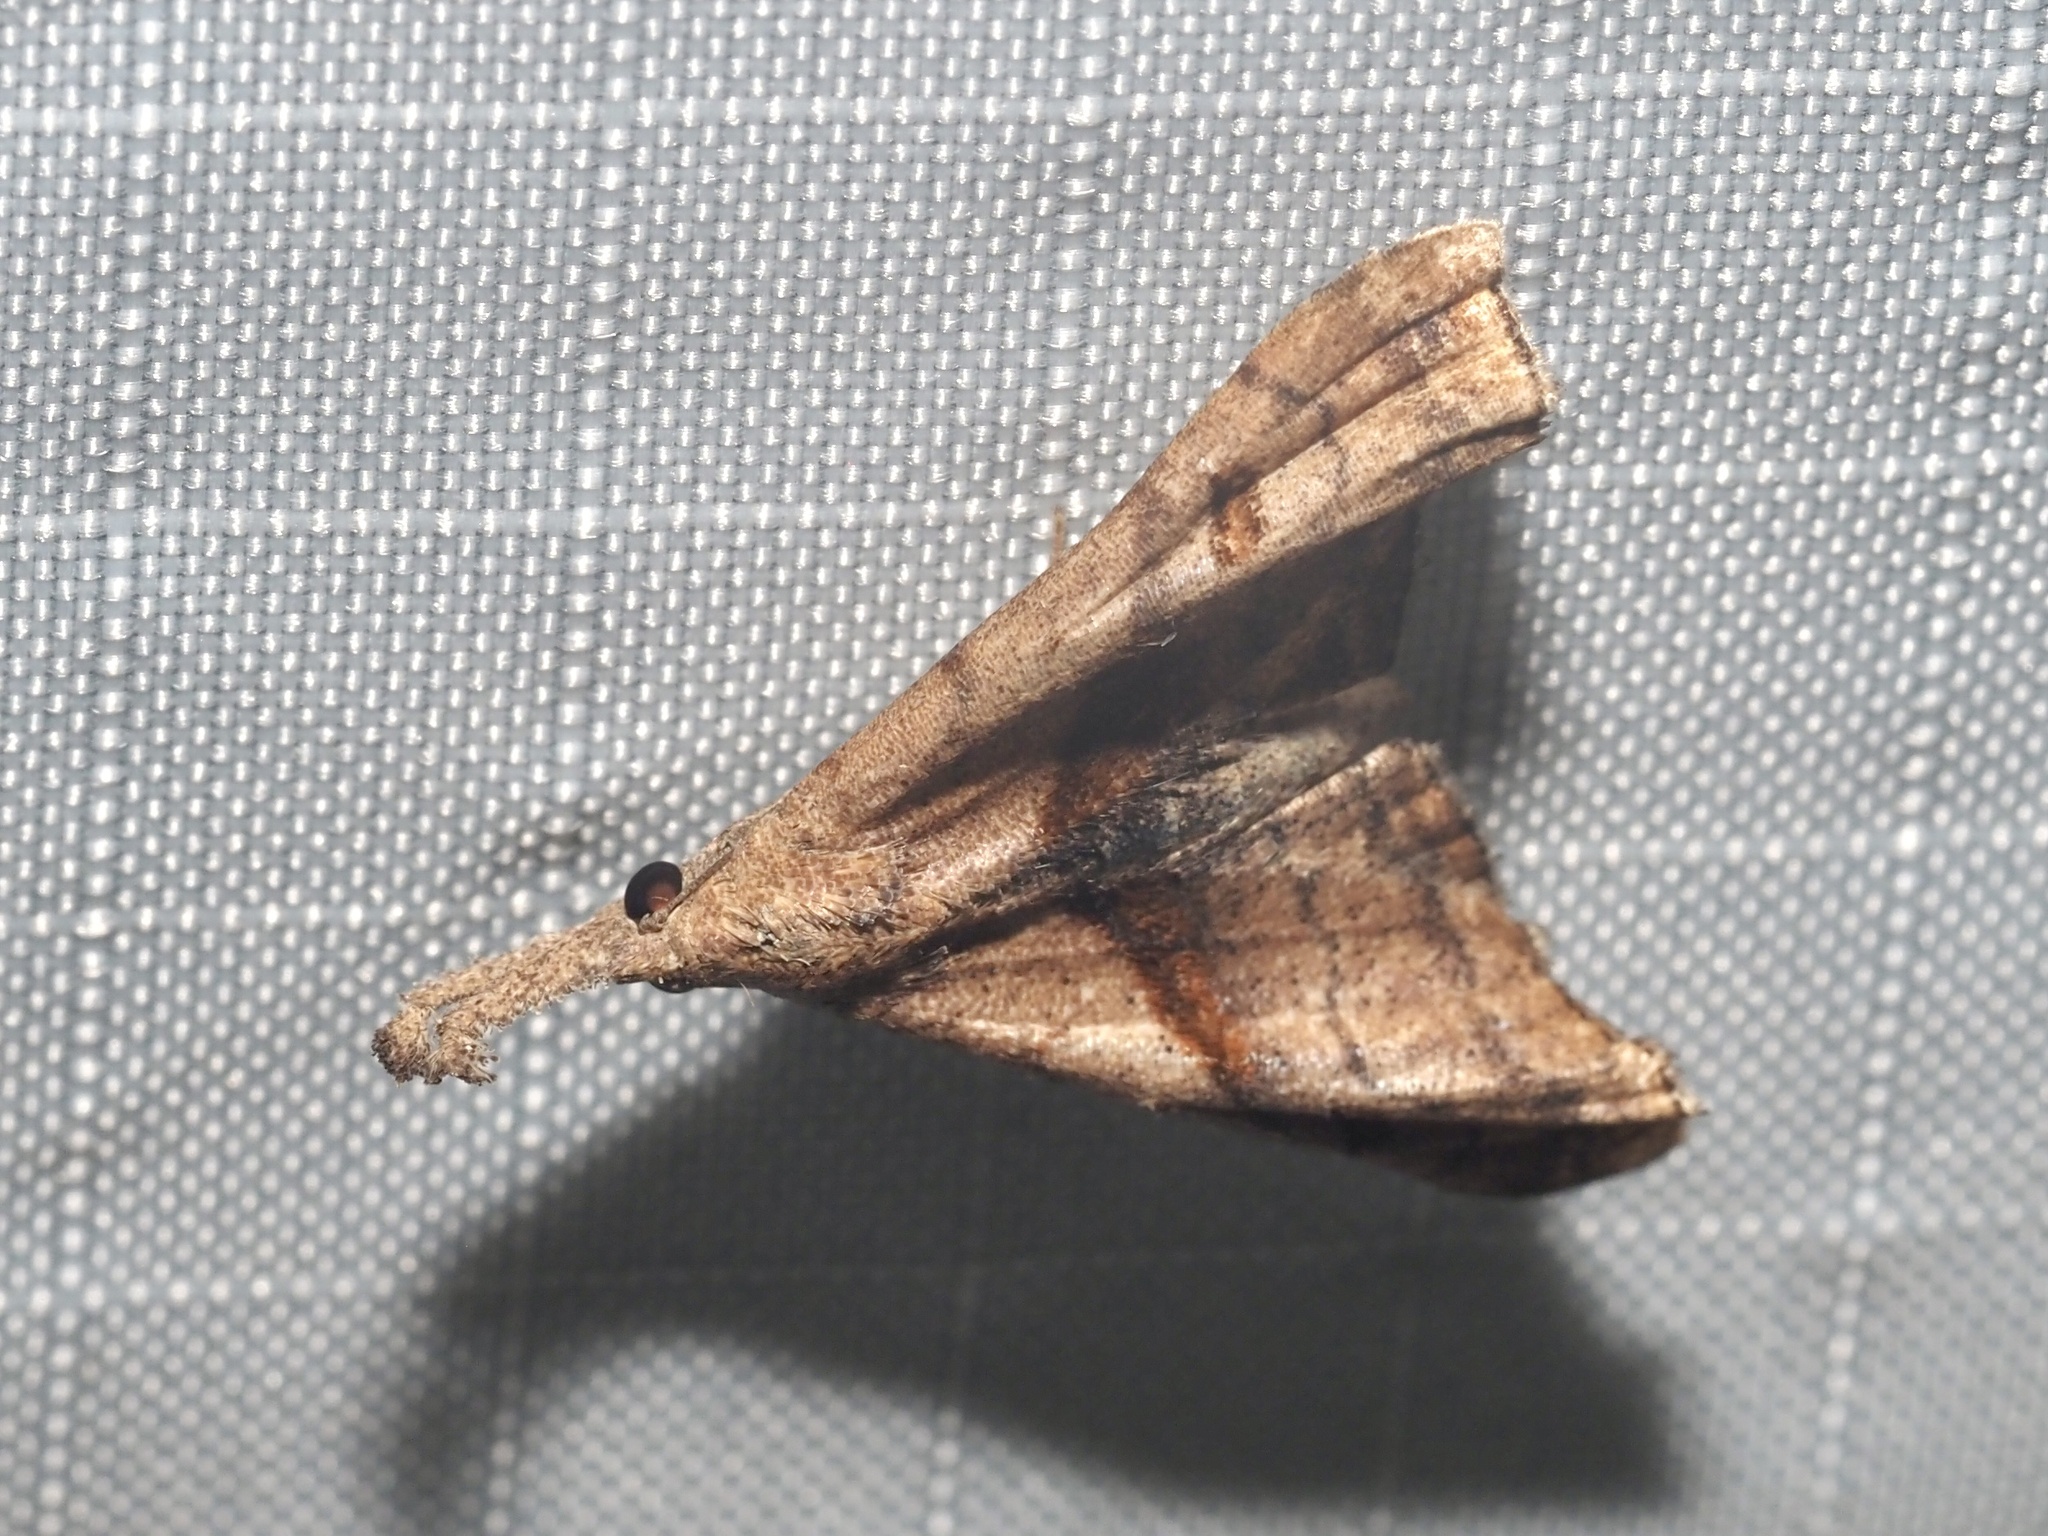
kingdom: Animalia
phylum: Arthropoda
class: Insecta
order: Lepidoptera
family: Erebidae
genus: Palthis
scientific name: Palthis angulalis
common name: Dark-spotted palthis moth
